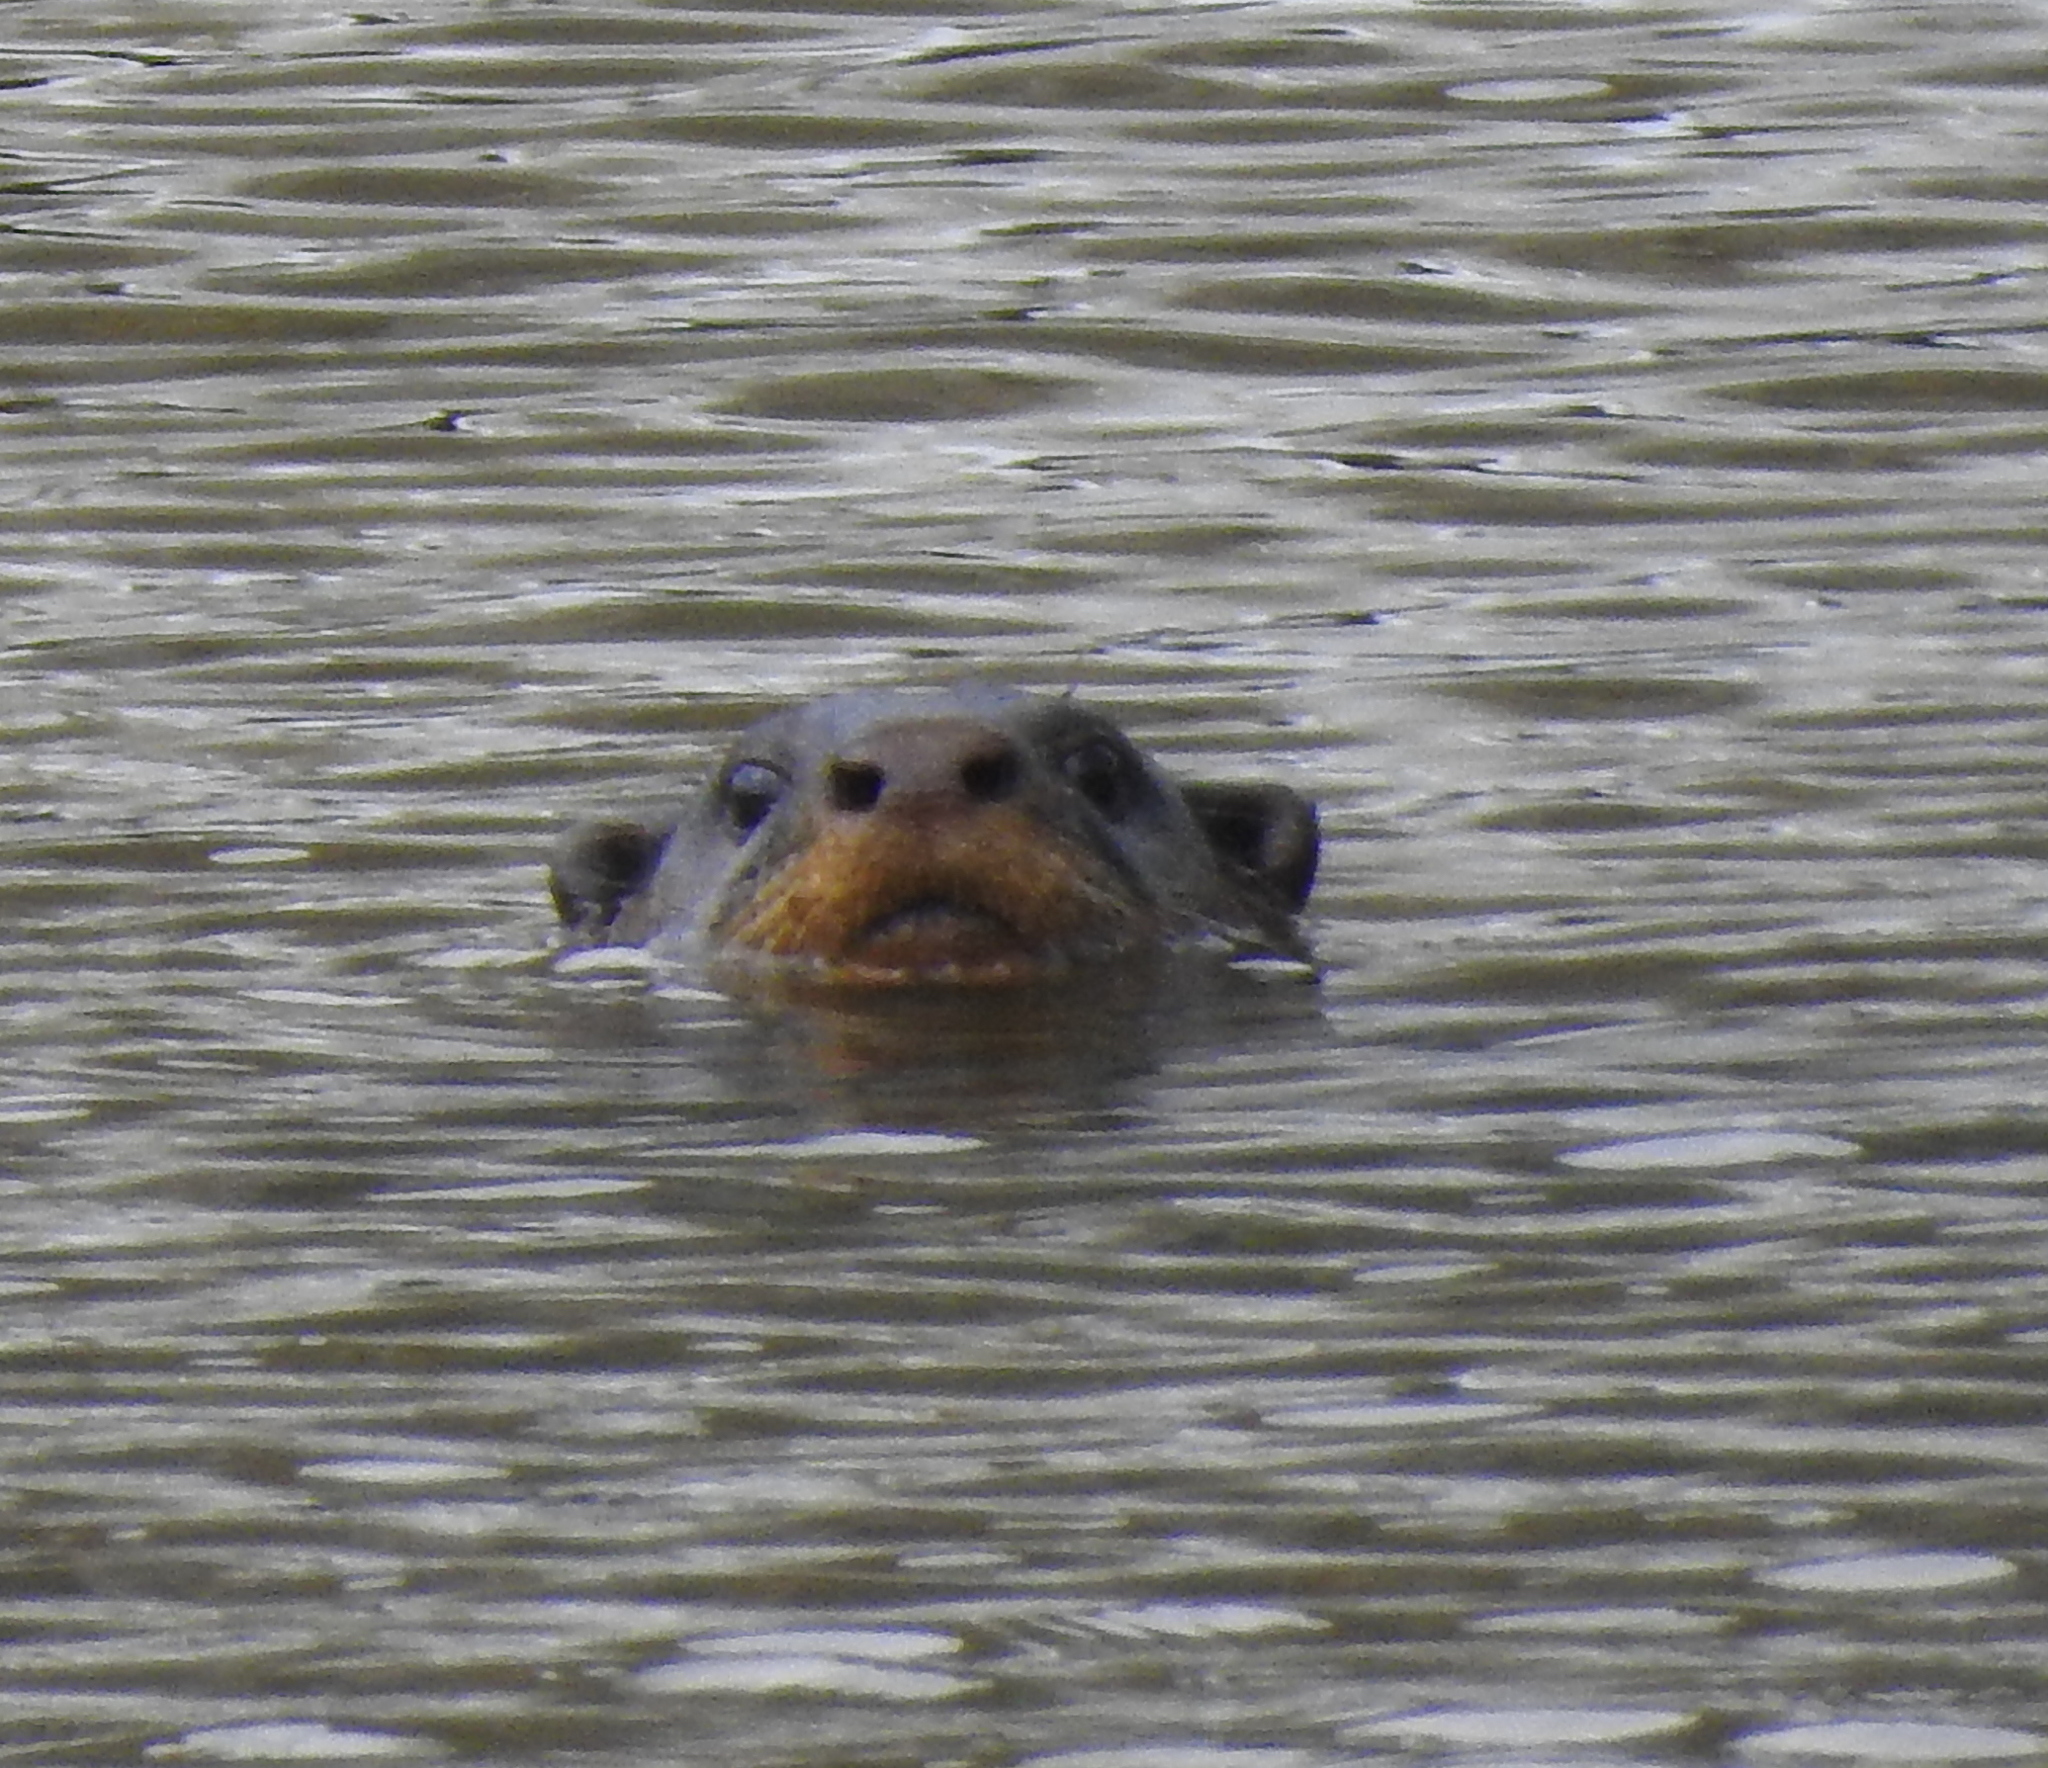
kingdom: Animalia
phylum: Chordata
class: Mammalia
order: Carnivora
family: Mustelidae
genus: Lutrogale
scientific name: Lutrogale perspicillata
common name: Smooth-coated otter
